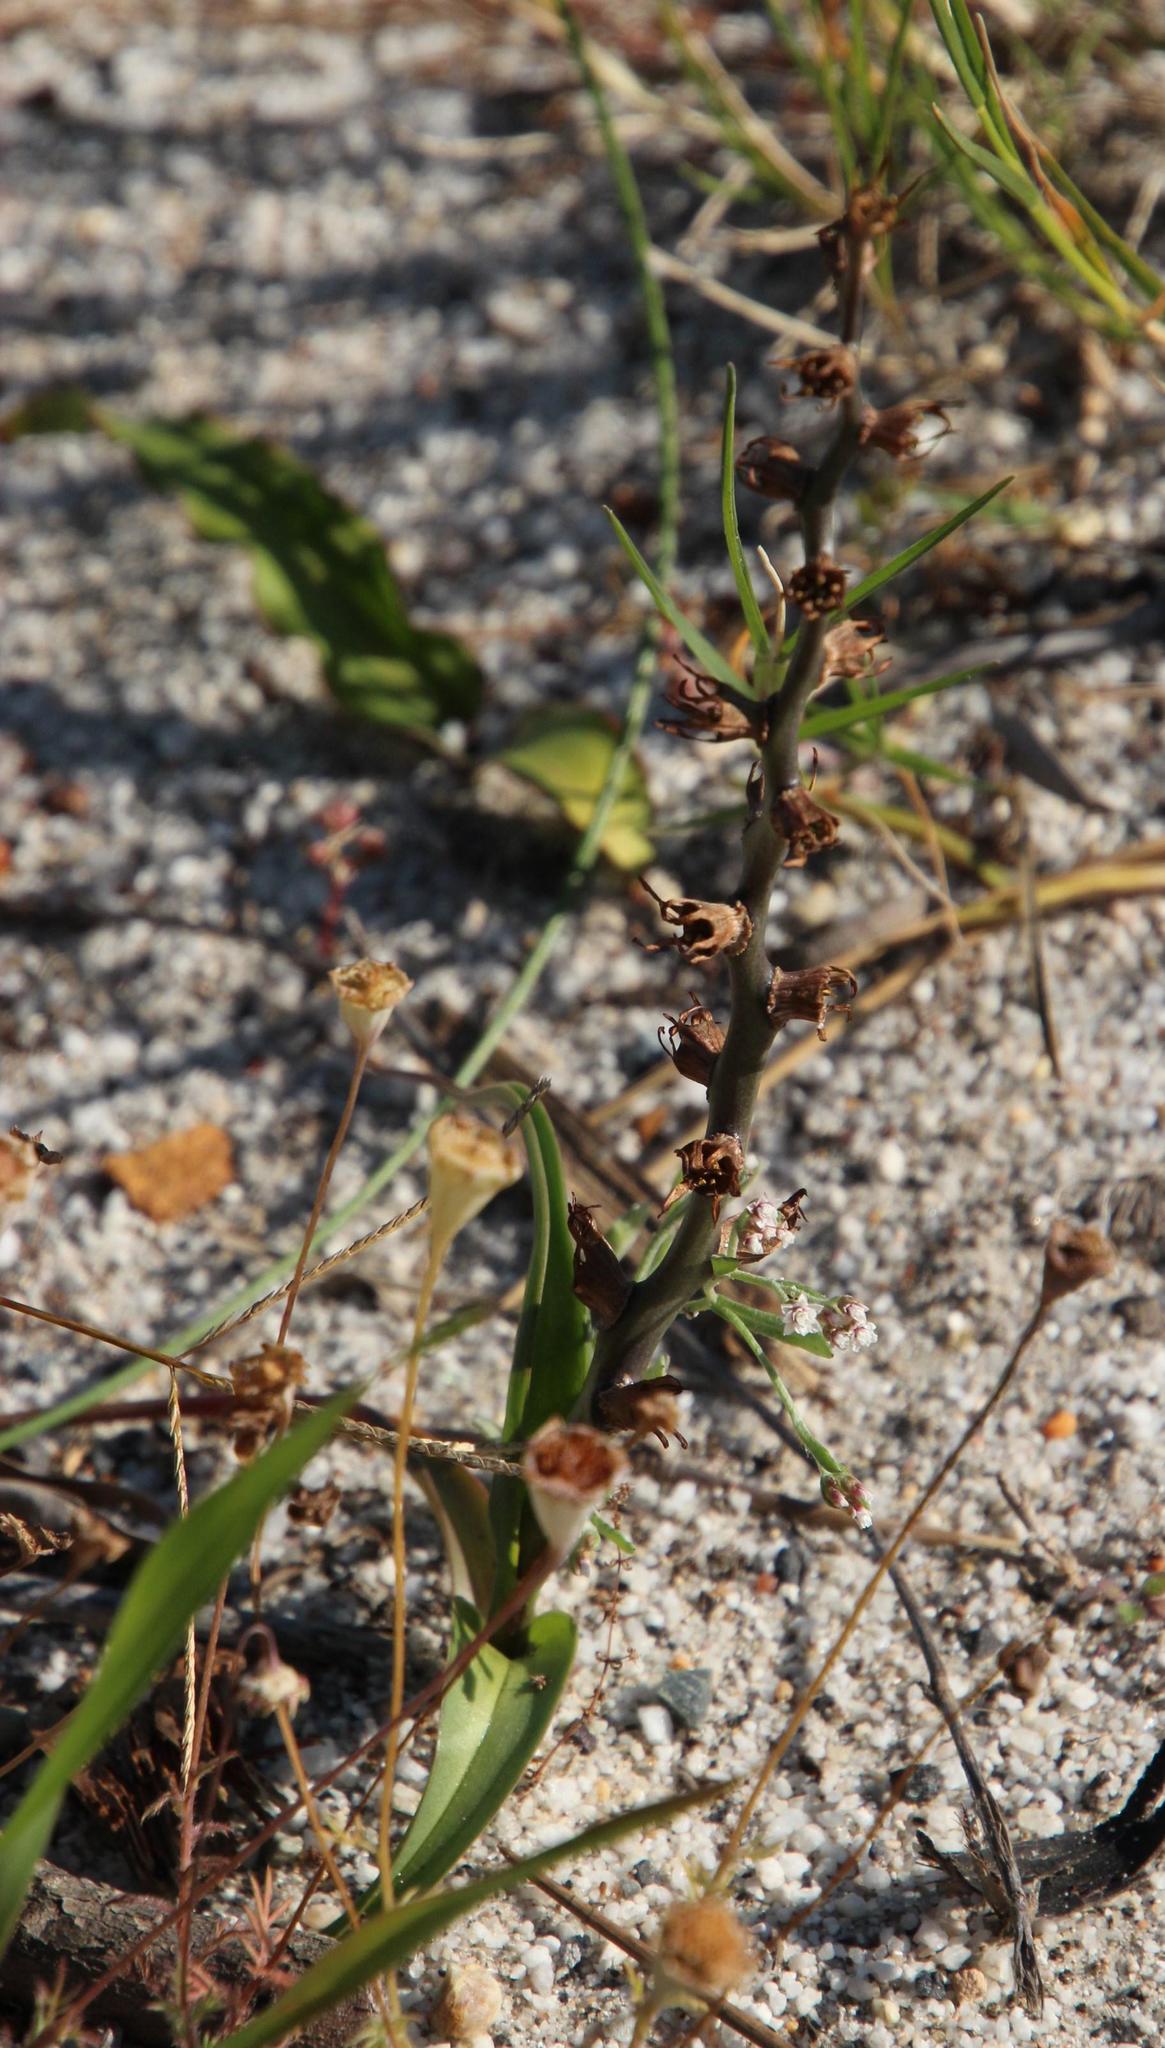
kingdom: Plantae
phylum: Tracheophyta
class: Liliopsida
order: Liliales
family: Colchicaceae
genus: Wurmbea
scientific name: Wurmbea monopetala
